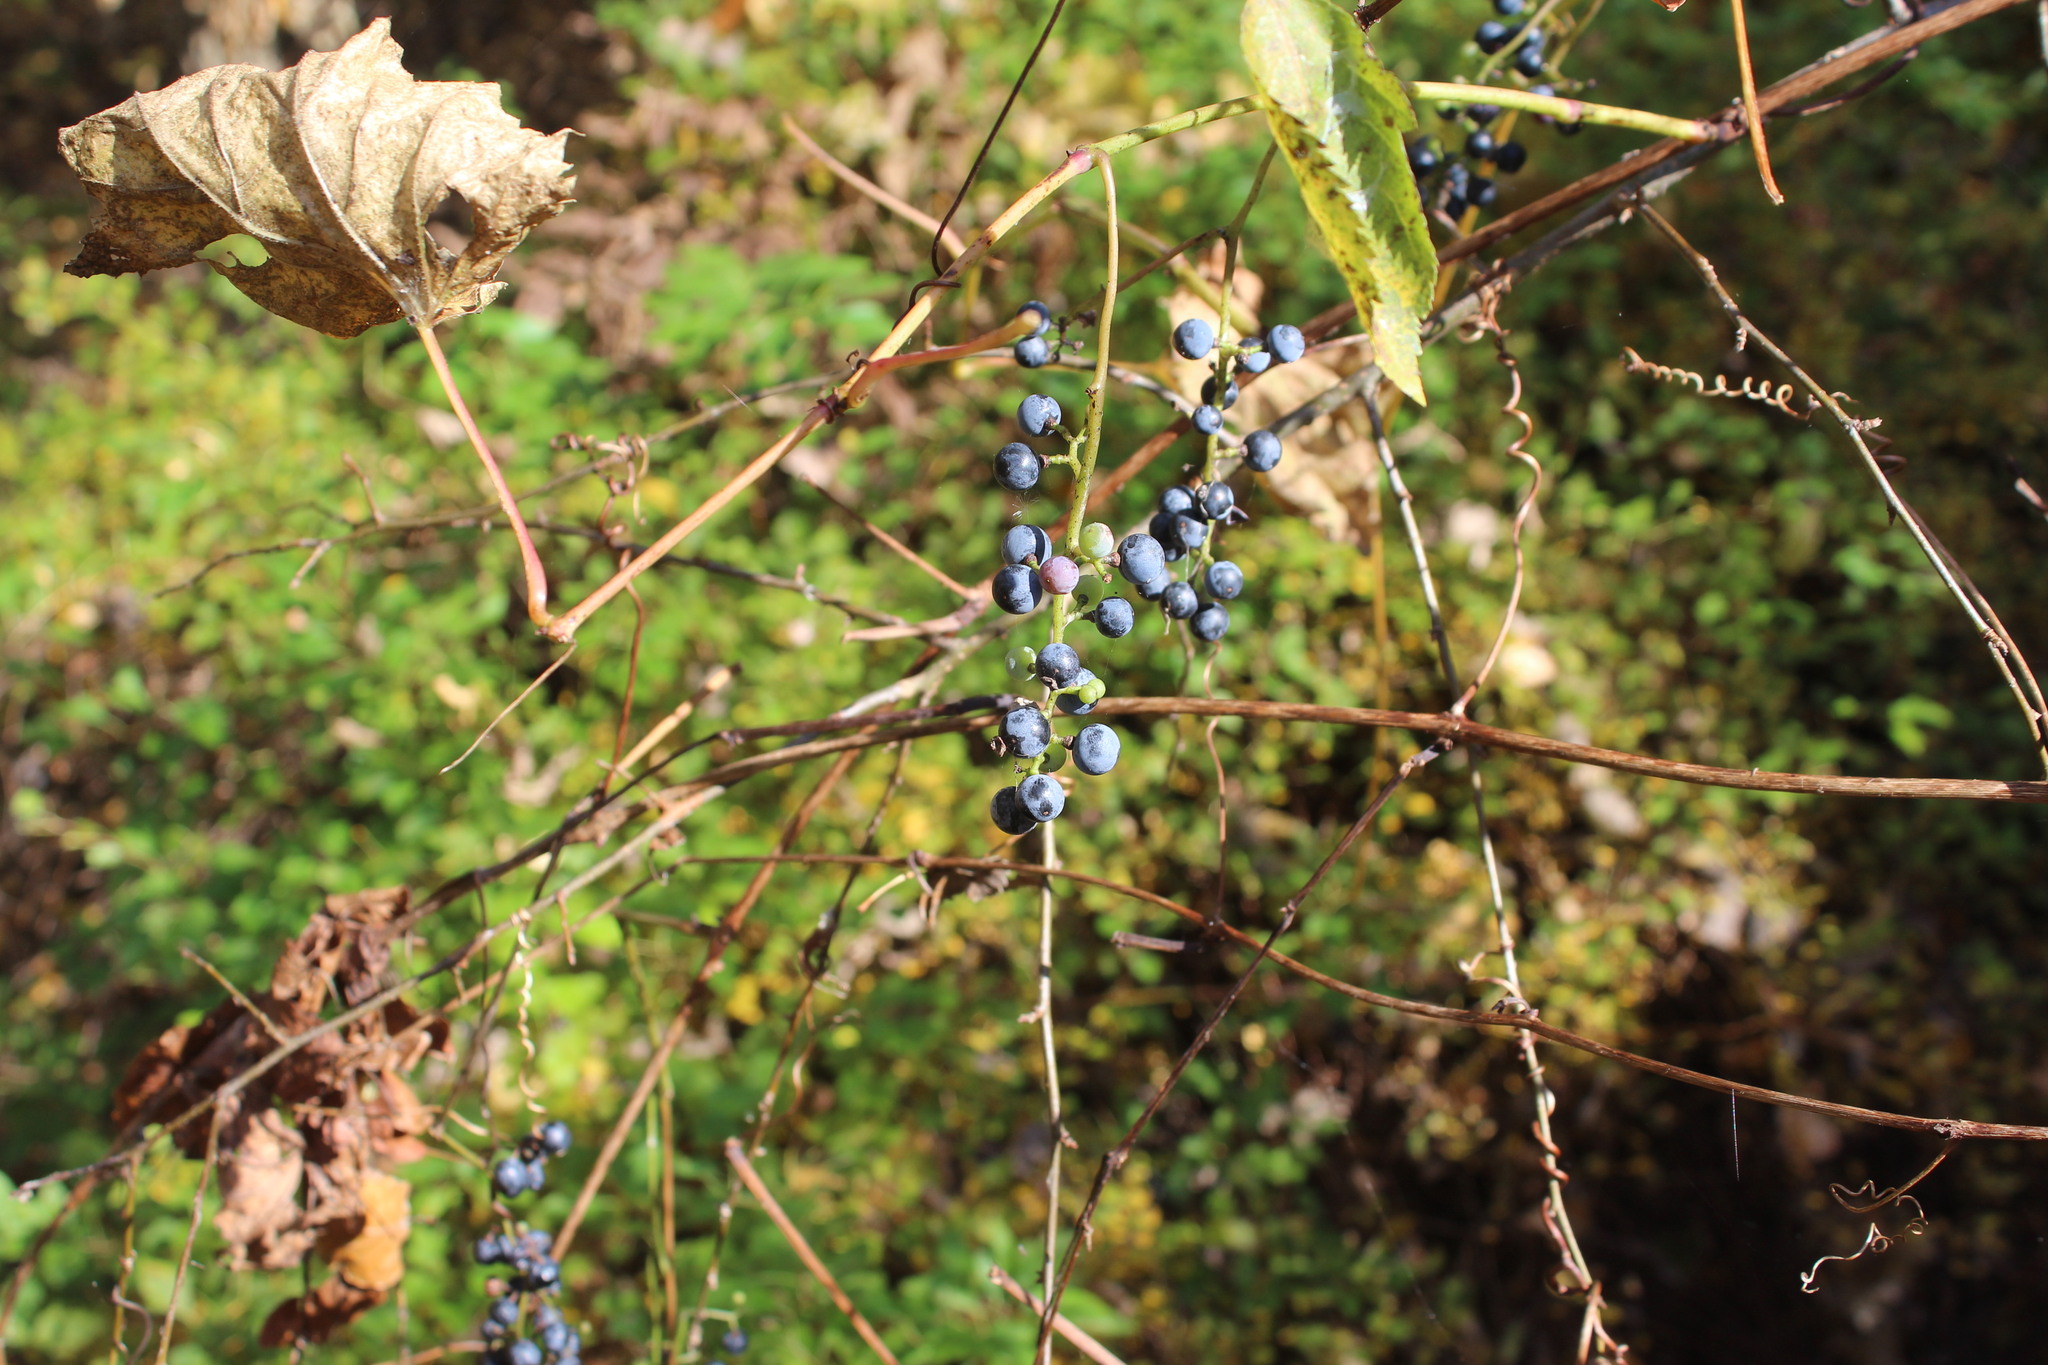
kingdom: Plantae
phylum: Tracheophyta
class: Magnoliopsida
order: Vitales
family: Vitaceae
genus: Vitis
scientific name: Vitis riparia
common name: Frost grape
